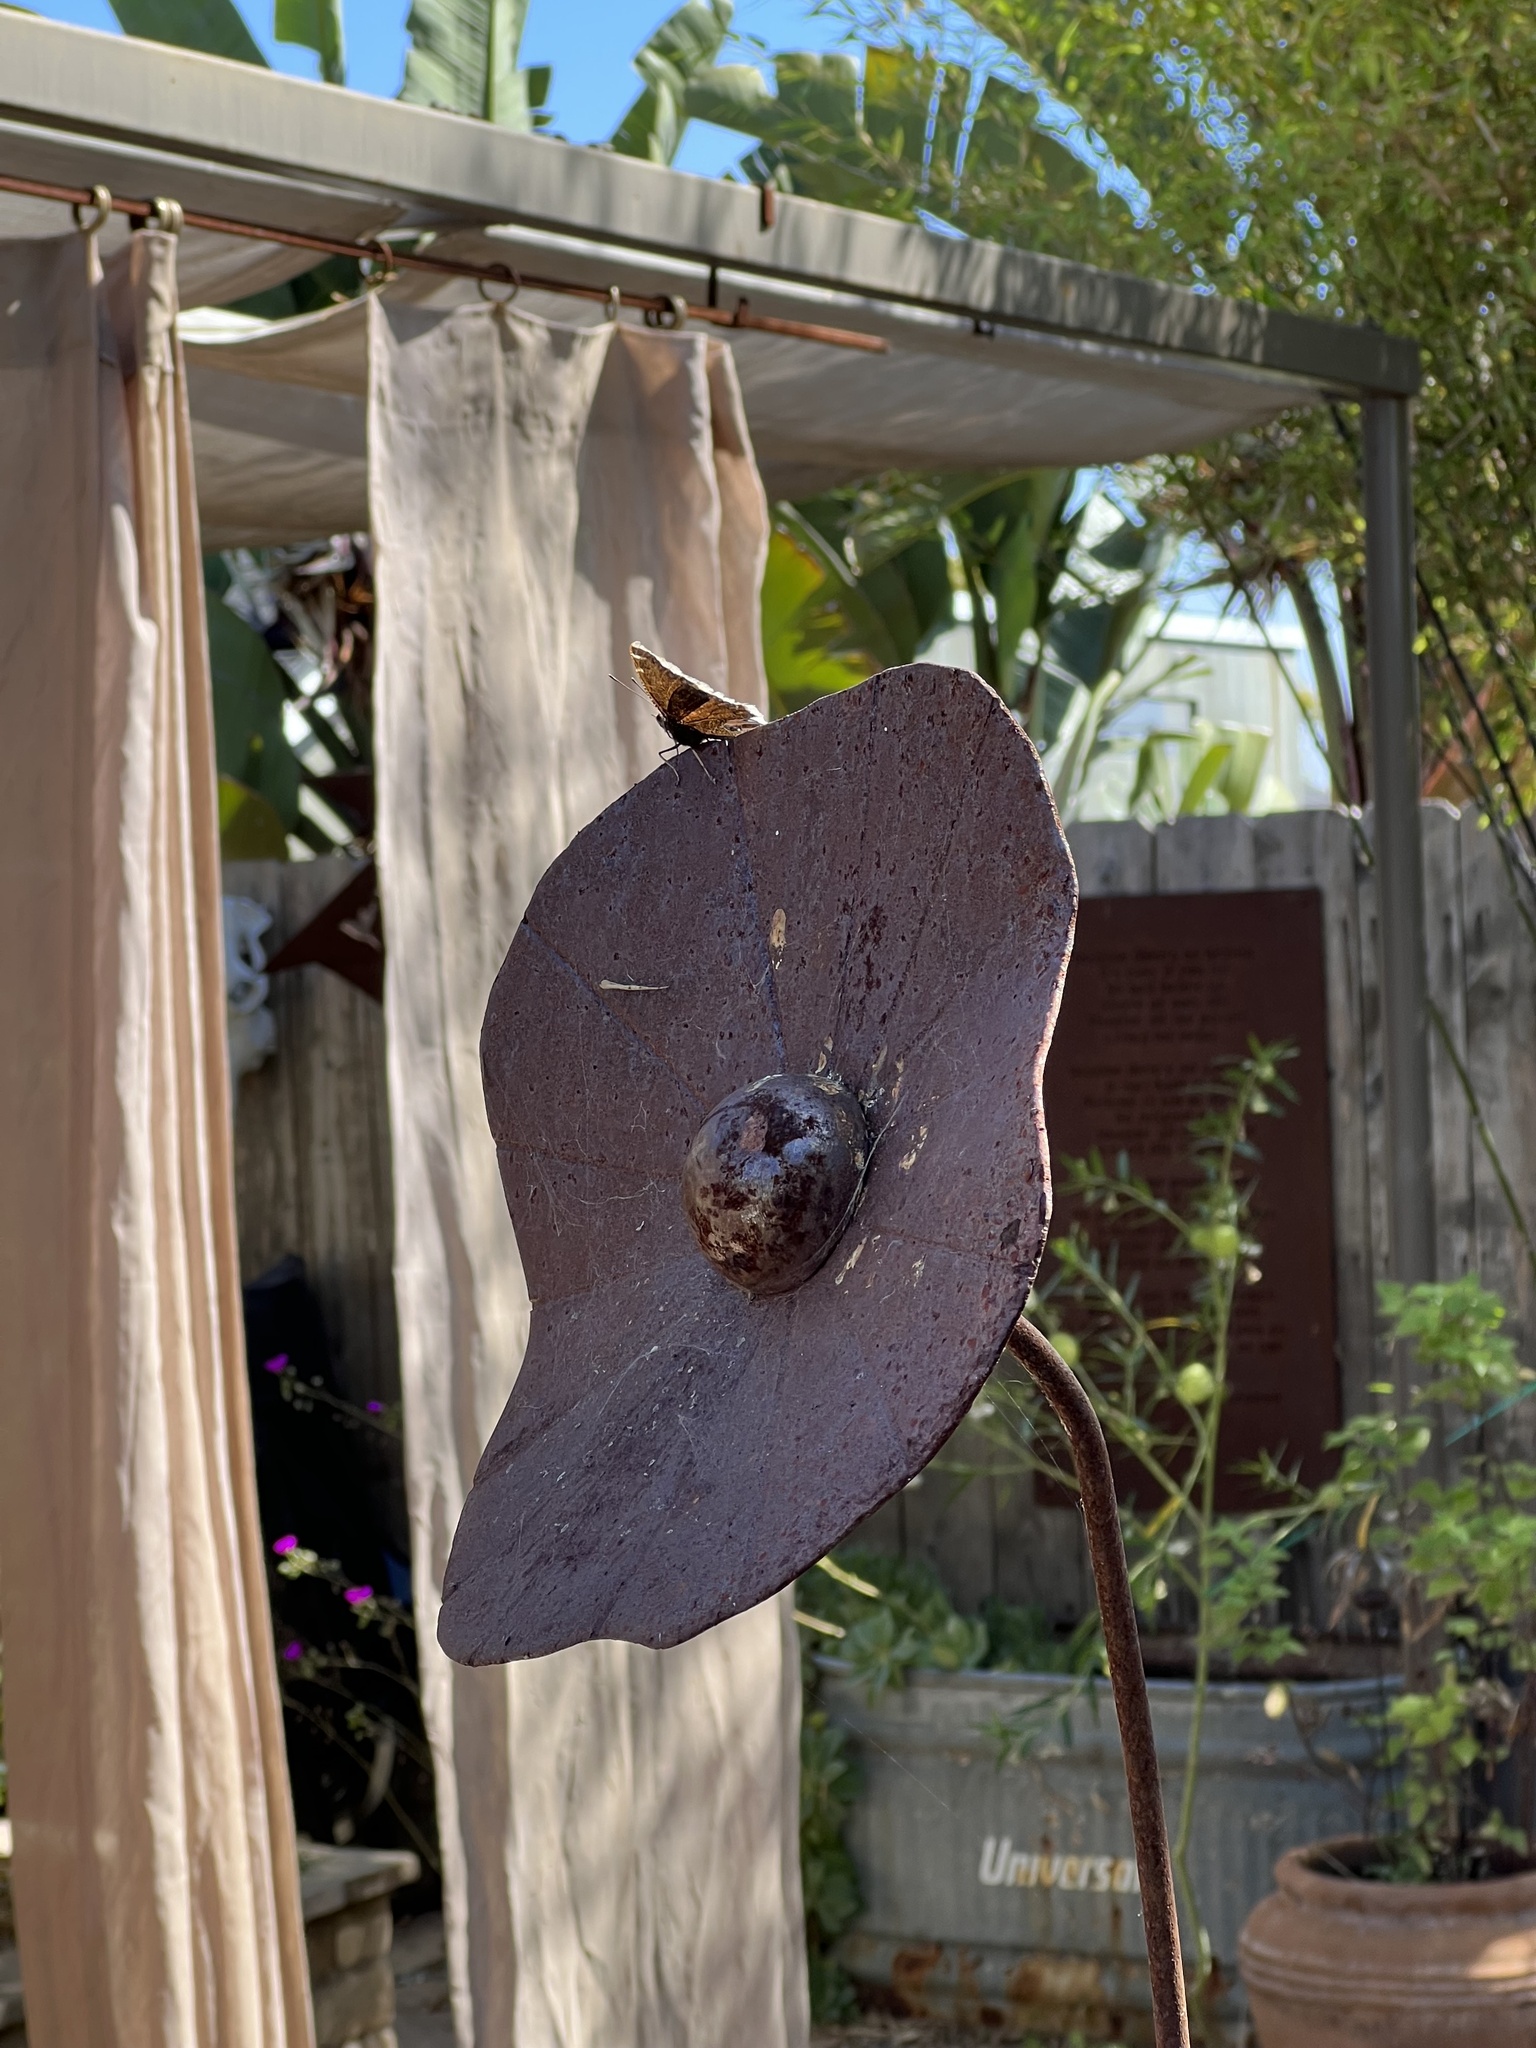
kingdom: Animalia
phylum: Arthropoda
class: Insecta
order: Lepidoptera
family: Nymphalidae
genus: Nymphalis
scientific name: Nymphalis antiopa
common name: Camberwell beauty
